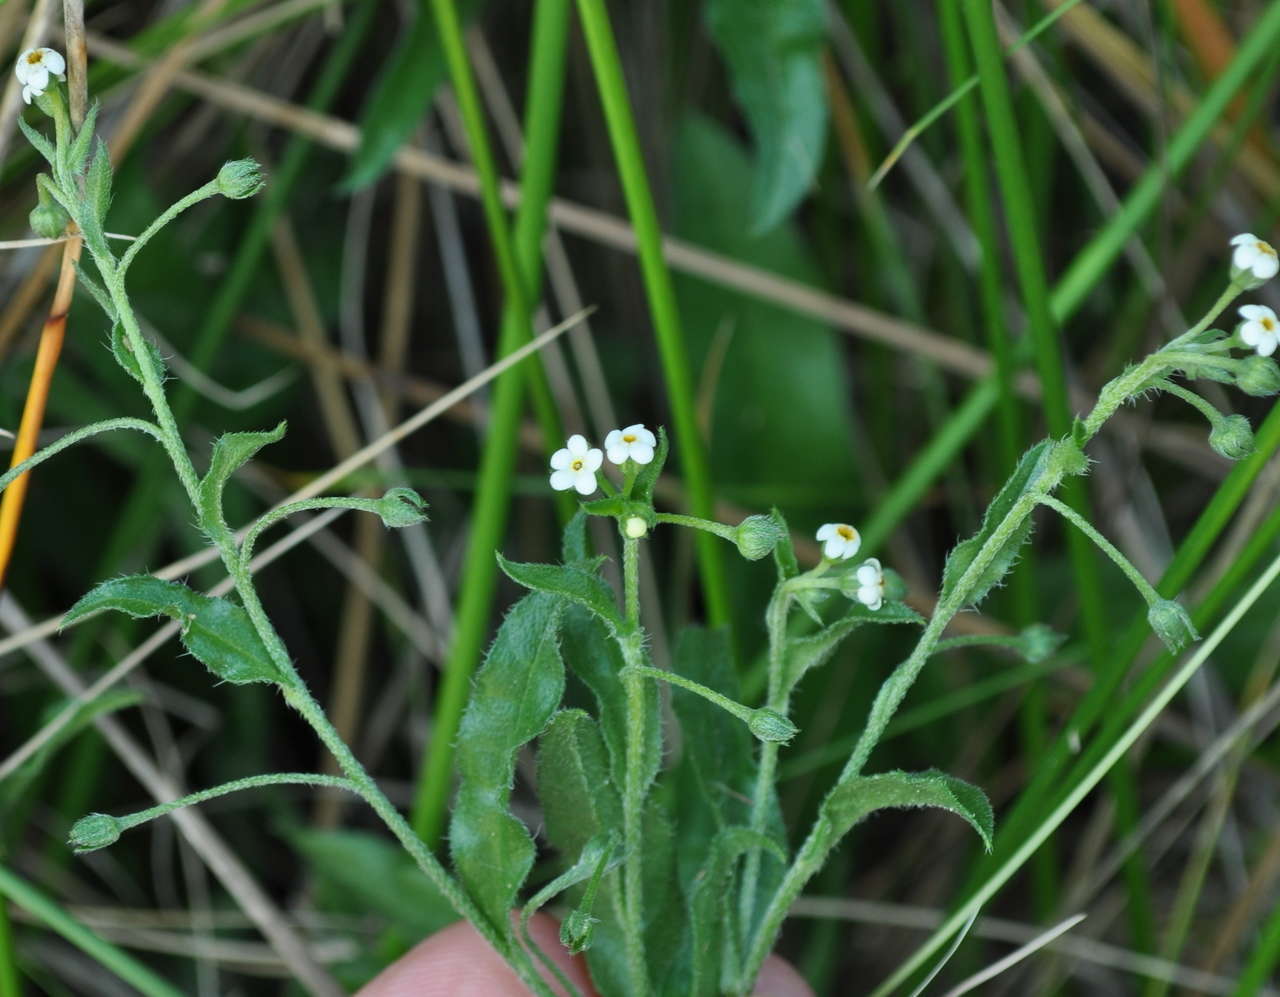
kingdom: Plantae
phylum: Tracheophyta
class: Magnoliopsida
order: Boraginales
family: Boraginaceae
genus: Hackelia
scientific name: Hackelia suaveolens
